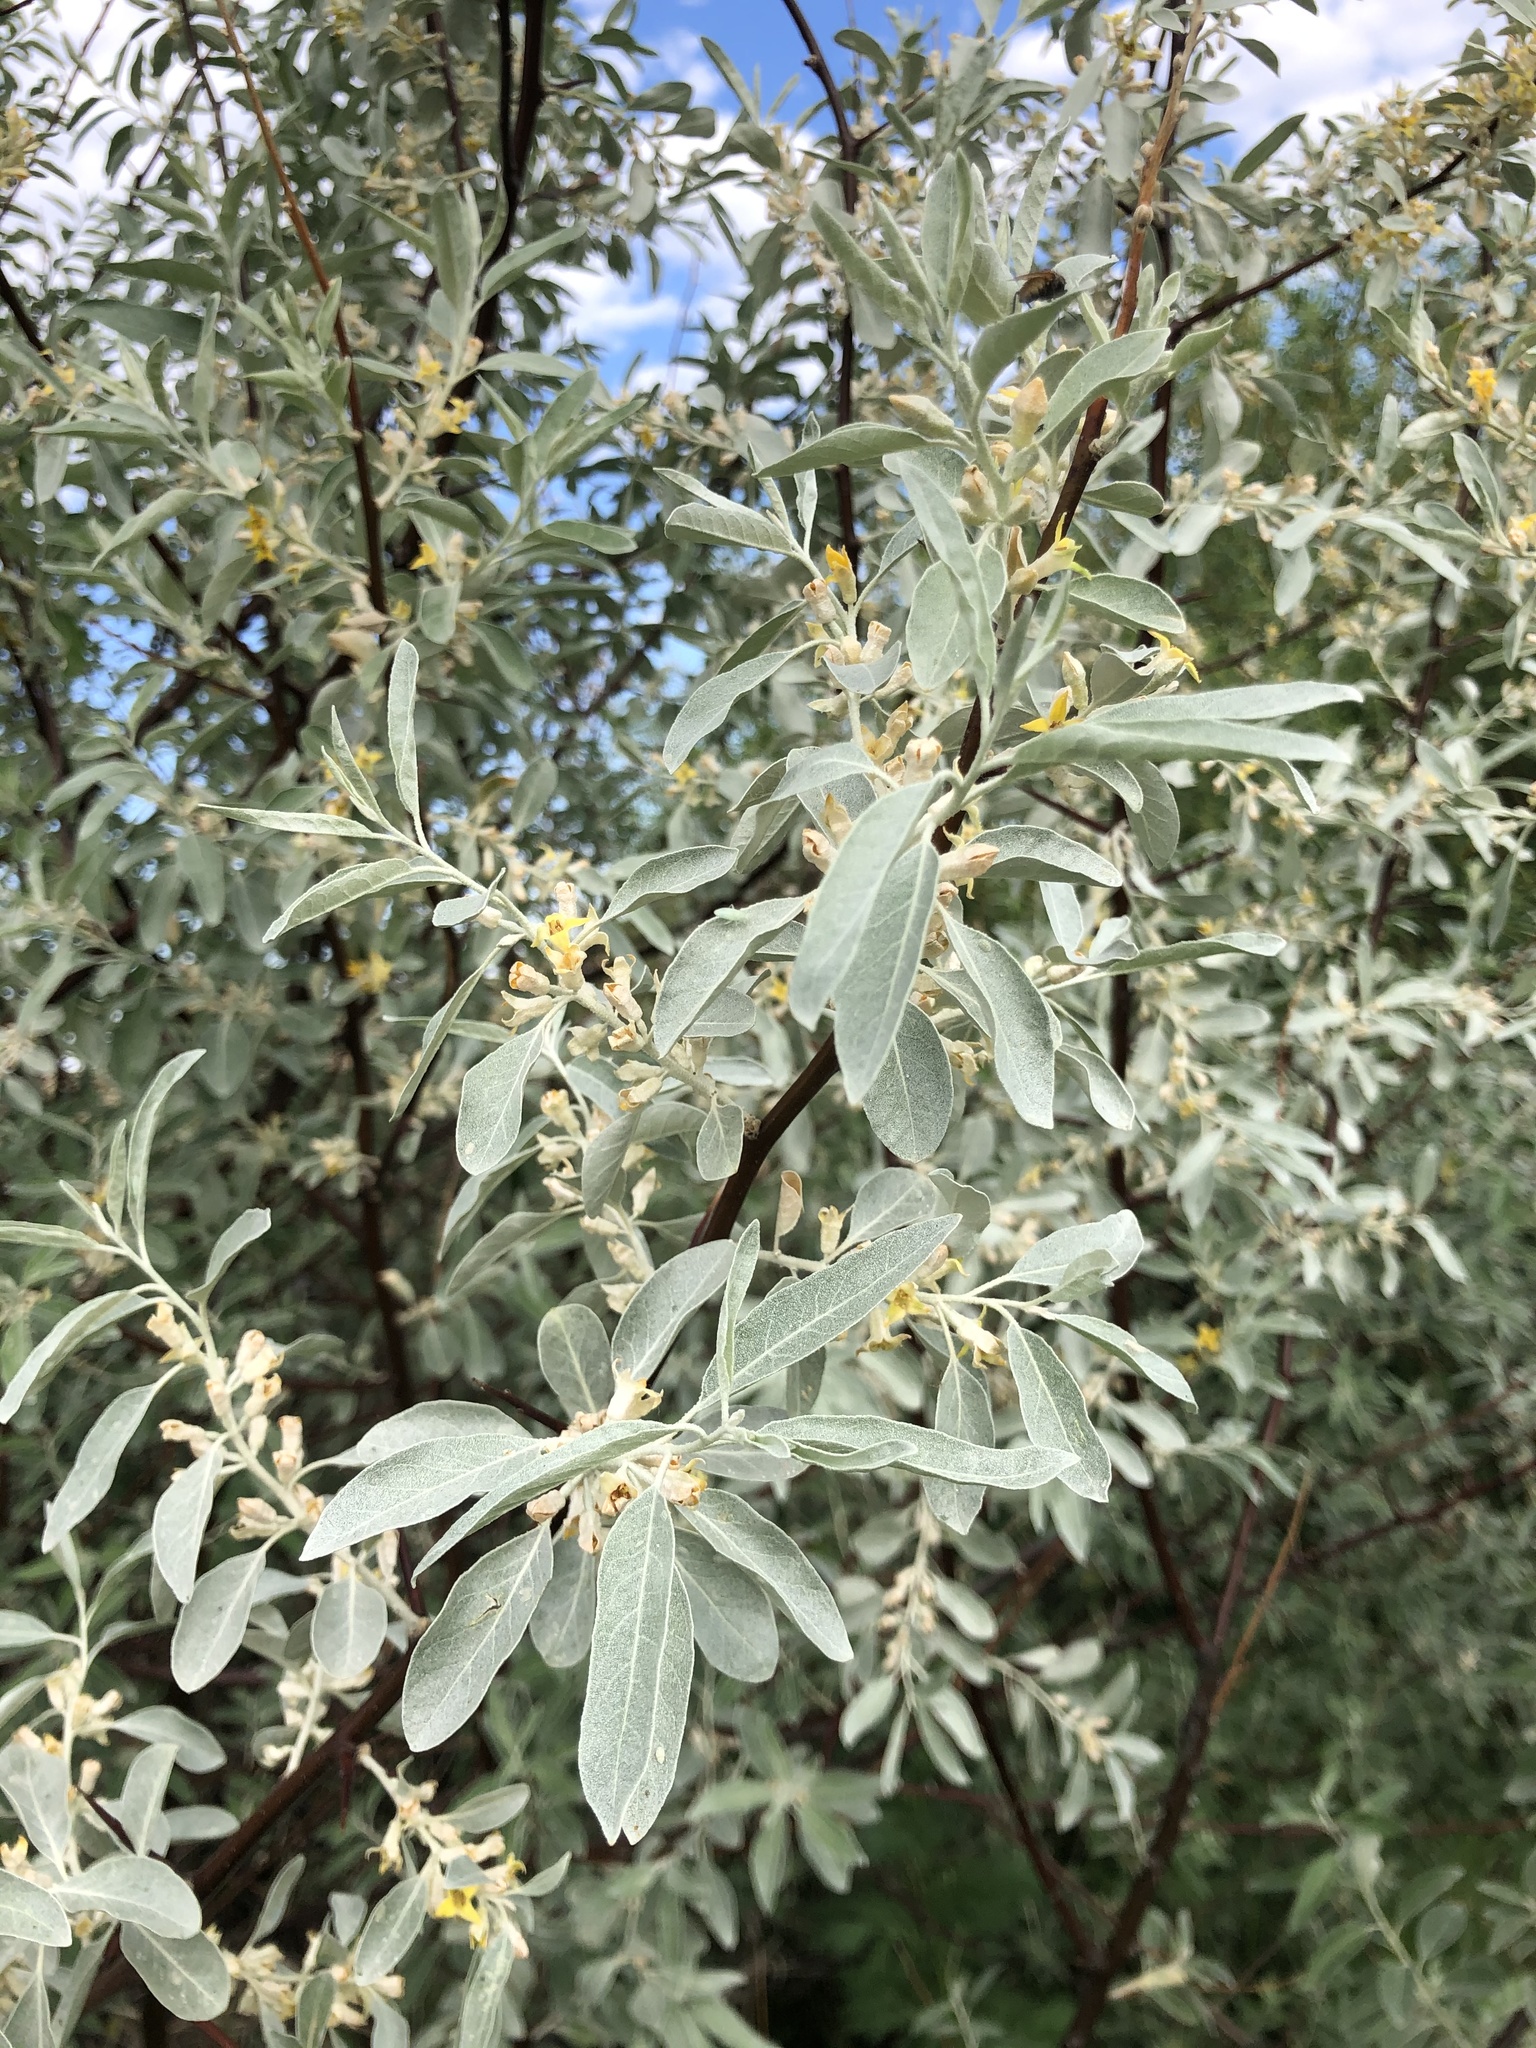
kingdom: Plantae
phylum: Tracheophyta
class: Magnoliopsida
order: Rosales
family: Elaeagnaceae
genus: Elaeagnus
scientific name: Elaeagnus angustifolia
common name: Russian olive
